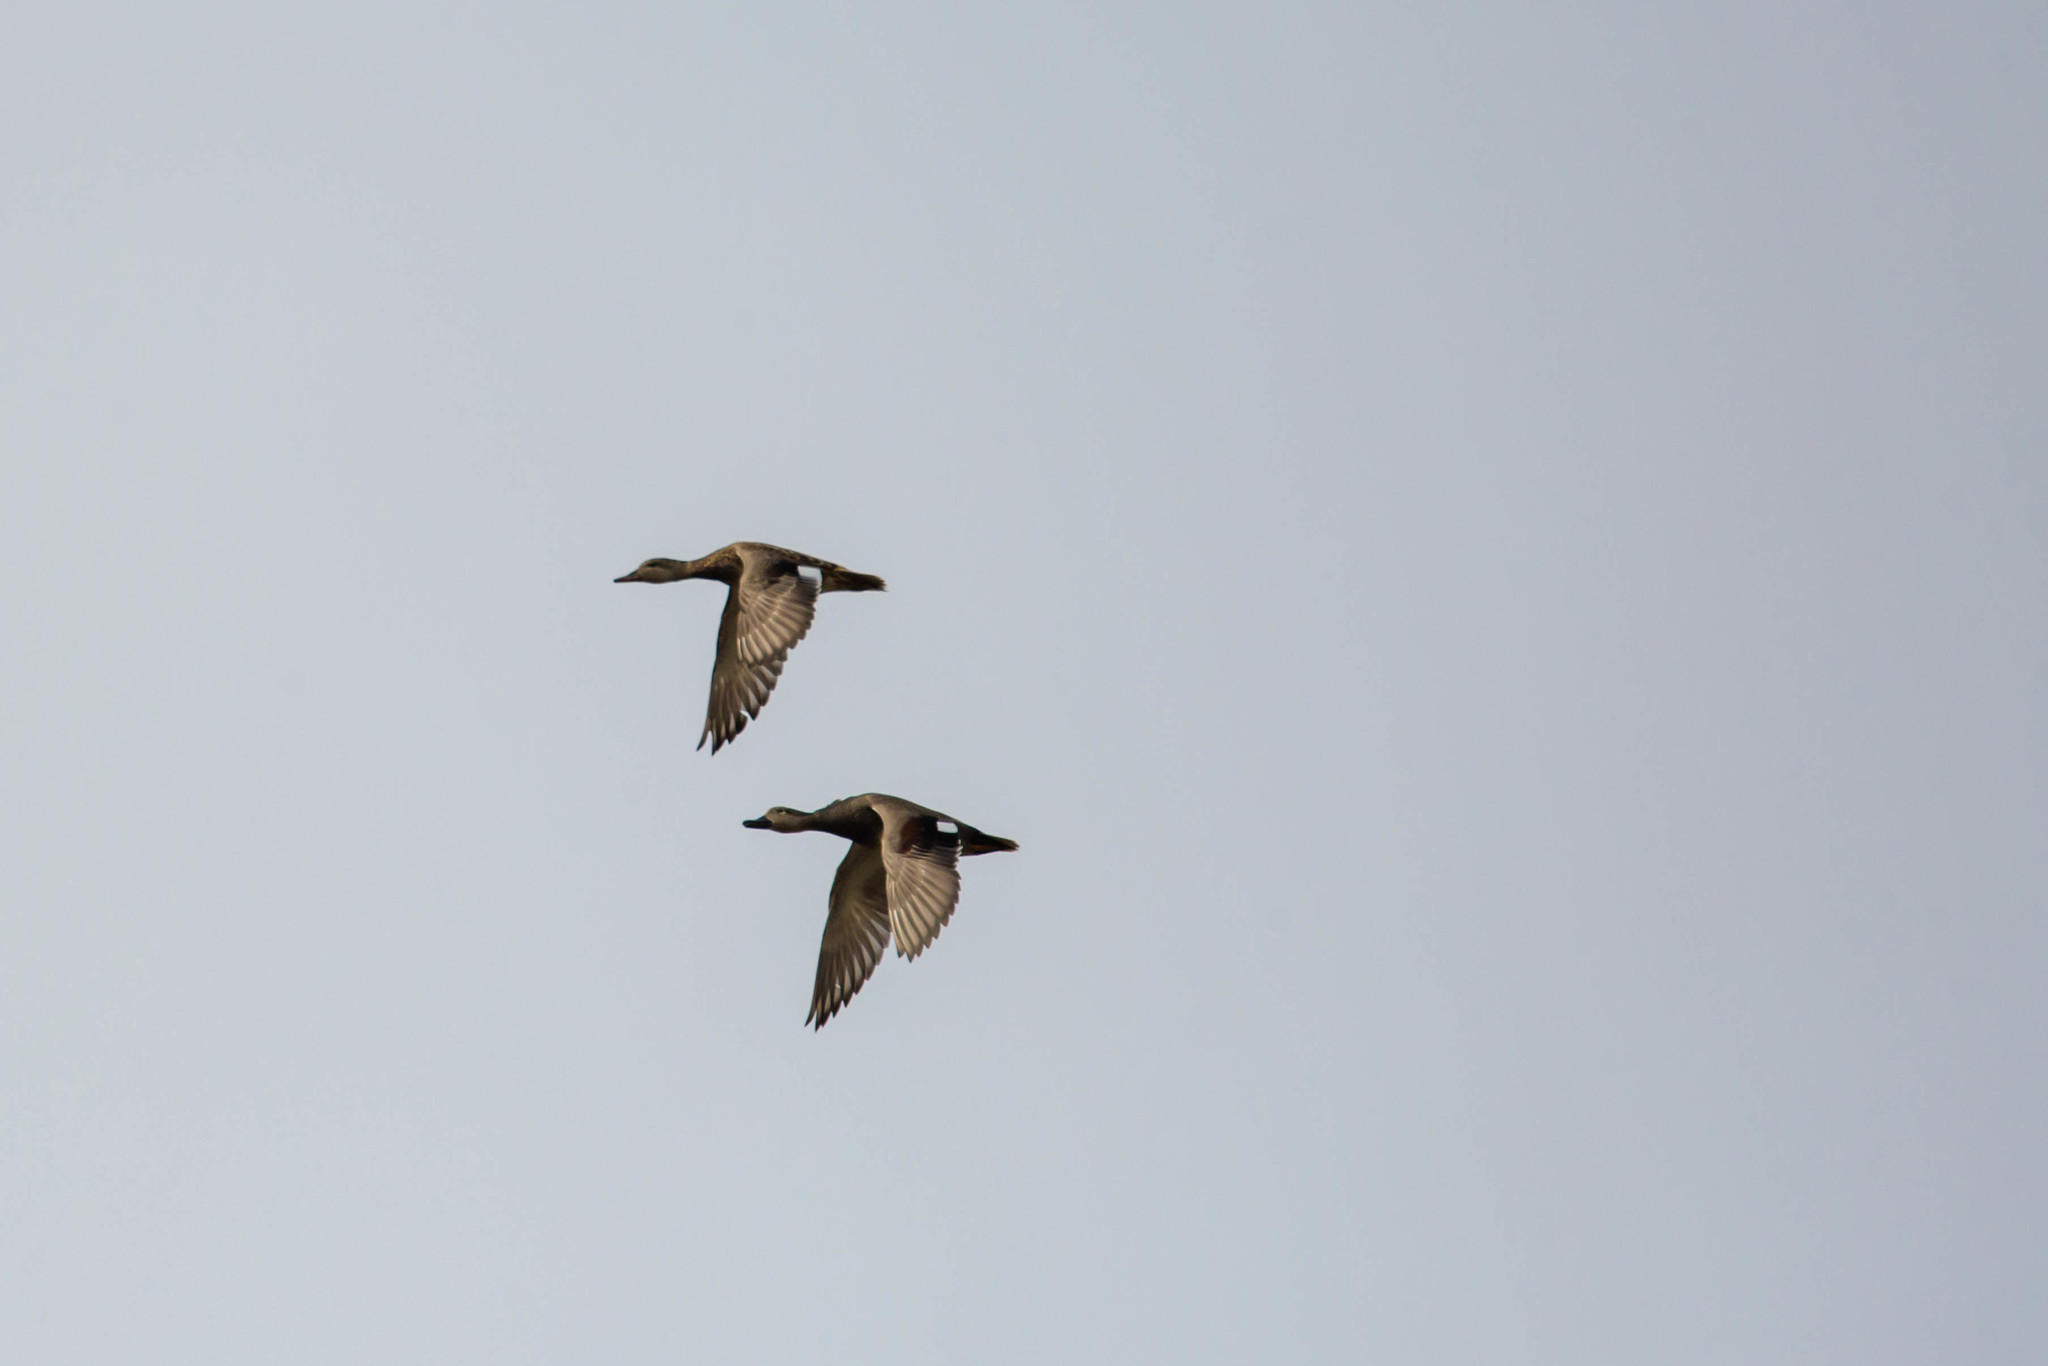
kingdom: Animalia
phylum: Chordata
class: Aves
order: Anseriformes
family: Anatidae
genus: Mareca
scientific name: Mareca strepera
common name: Gadwall
